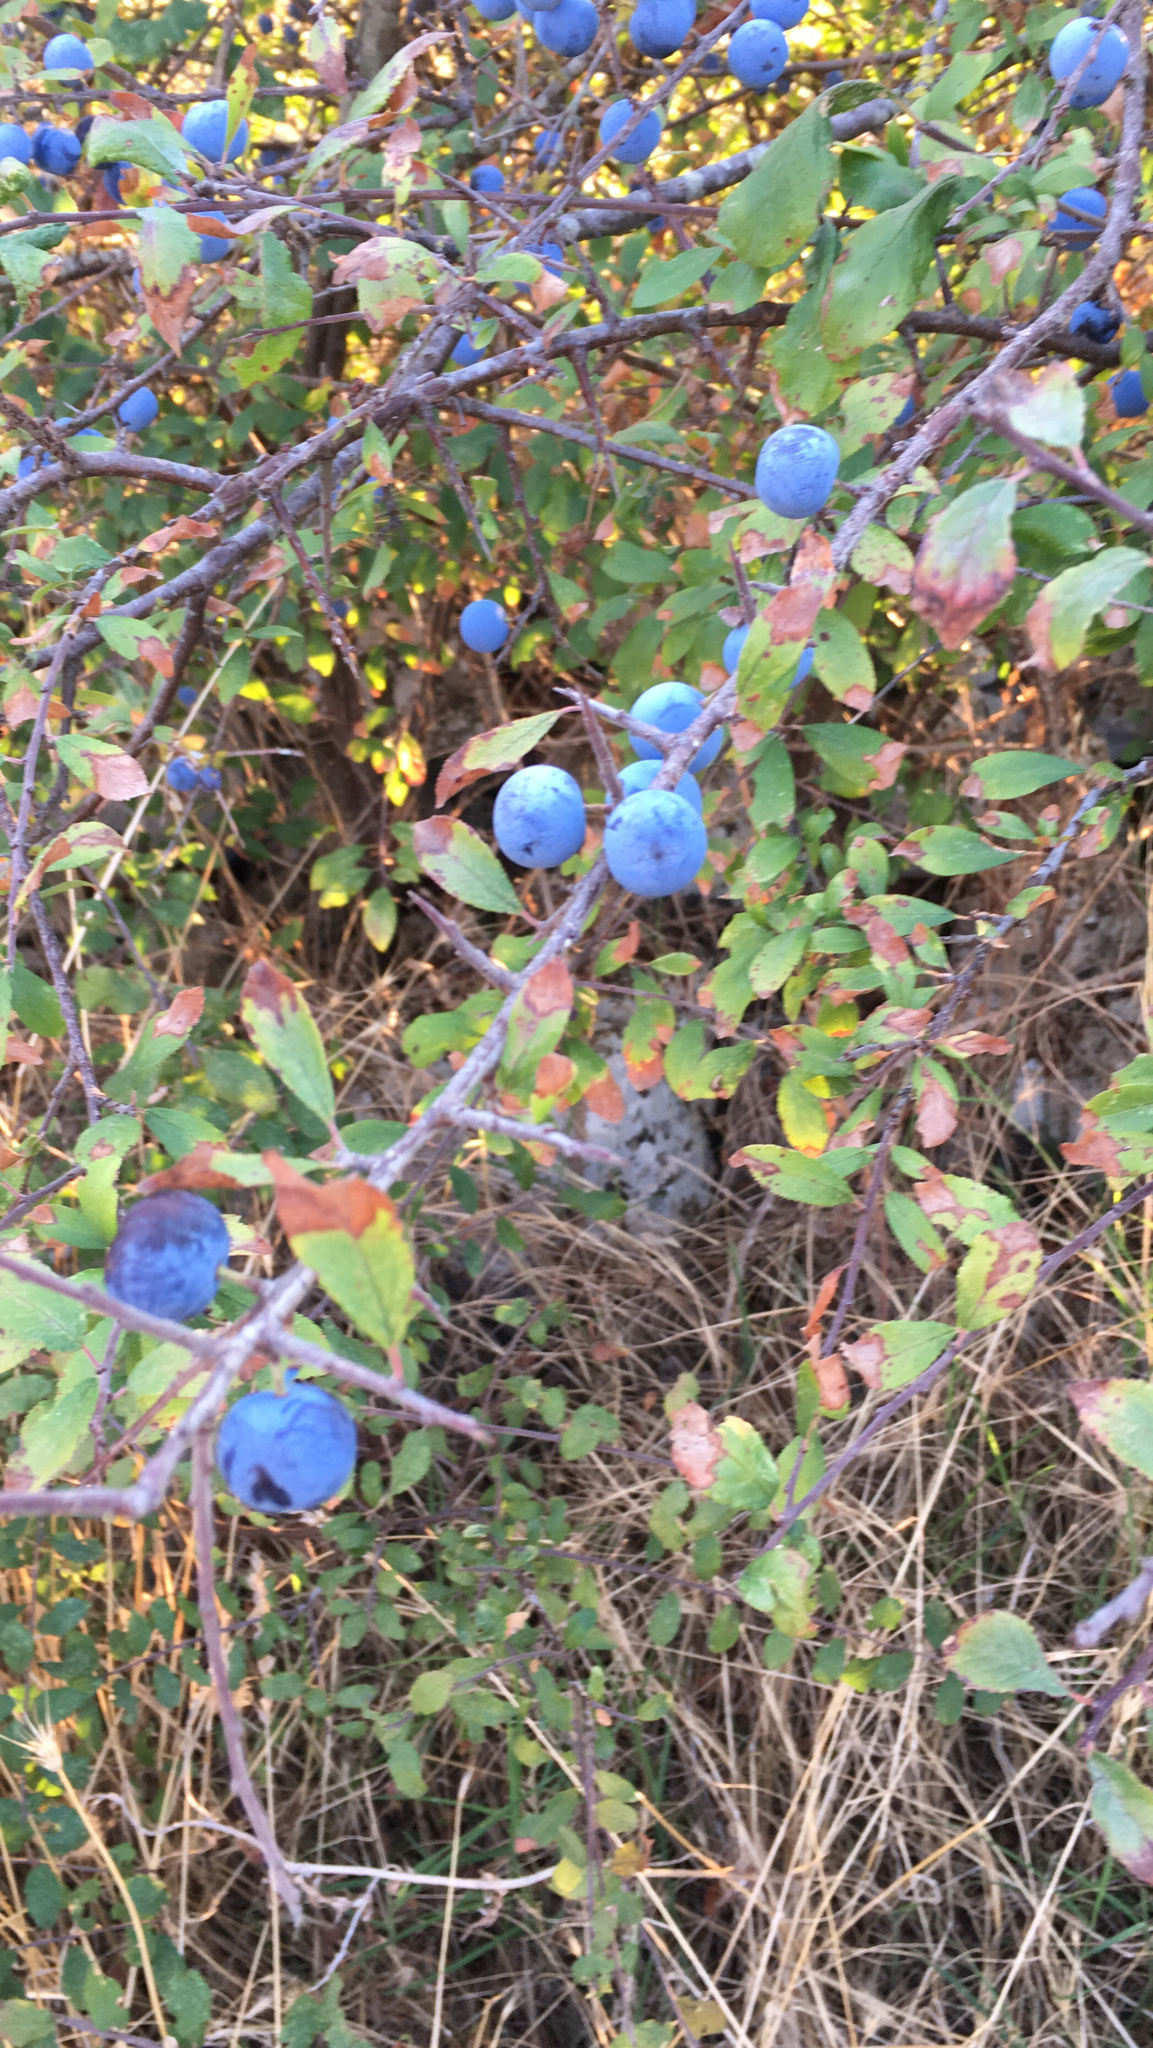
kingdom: Plantae
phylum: Tracheophyta
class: Magnoliopsida
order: Rosales
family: Rosaceae
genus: Prunus
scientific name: Prunus spinosa
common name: Blackthorn
